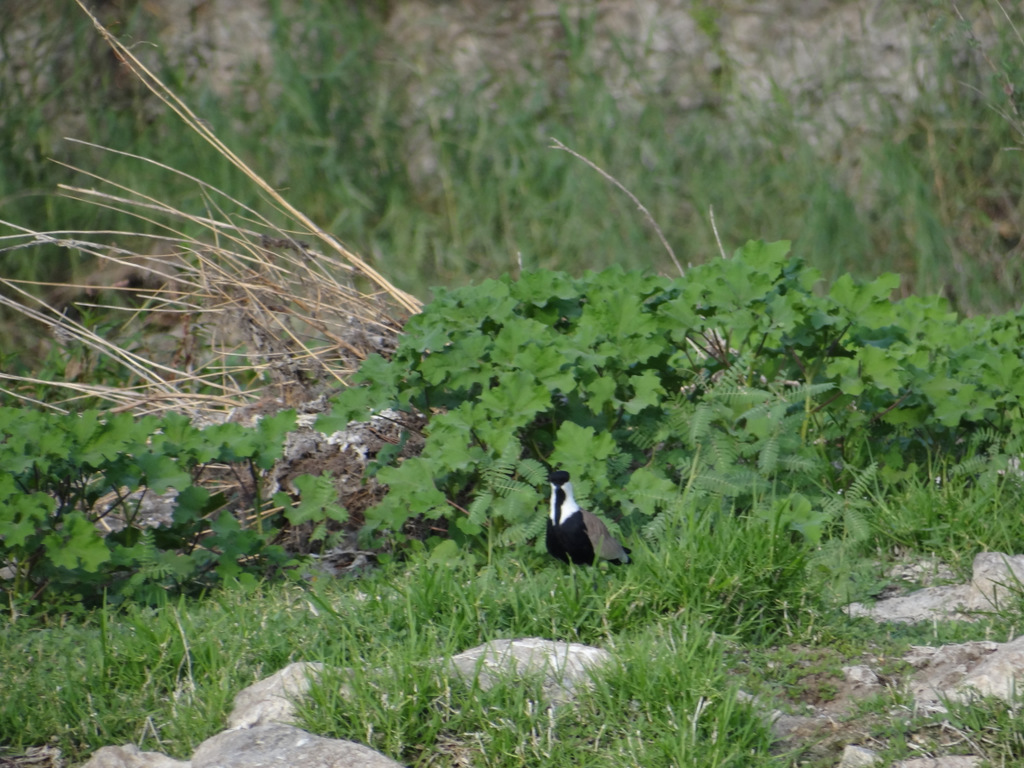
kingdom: Animalia
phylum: Chordata
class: Aves
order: Charadriiformes
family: Charadriidae
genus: Vanellus
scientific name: Vanellus spinosus
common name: Spur-winged lapwing
